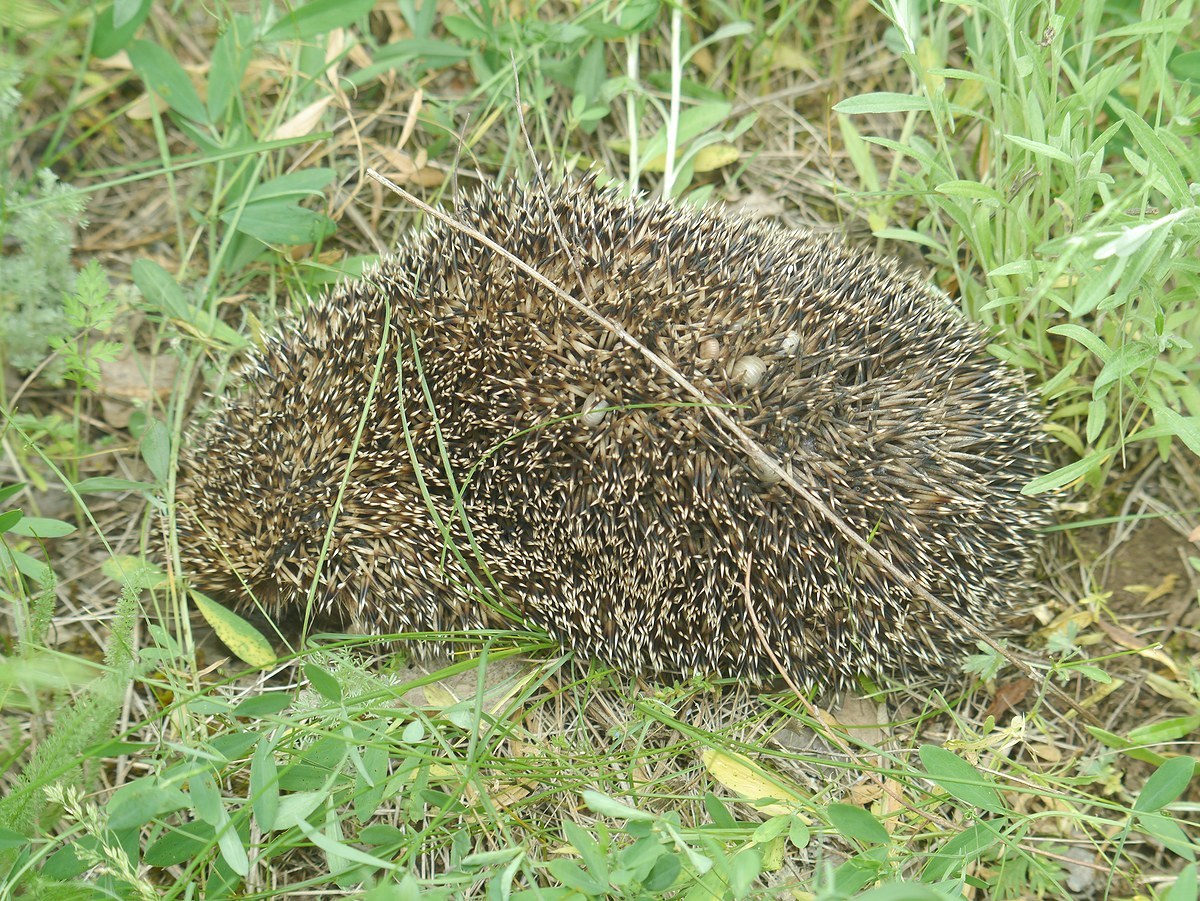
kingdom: Animalia
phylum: Chordata
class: Mammalia
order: Erinaceomorpha
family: Erinaceidae
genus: Erinaceus
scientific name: Erinaceus roumanicus
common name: Northern white-breasted hedgehog
